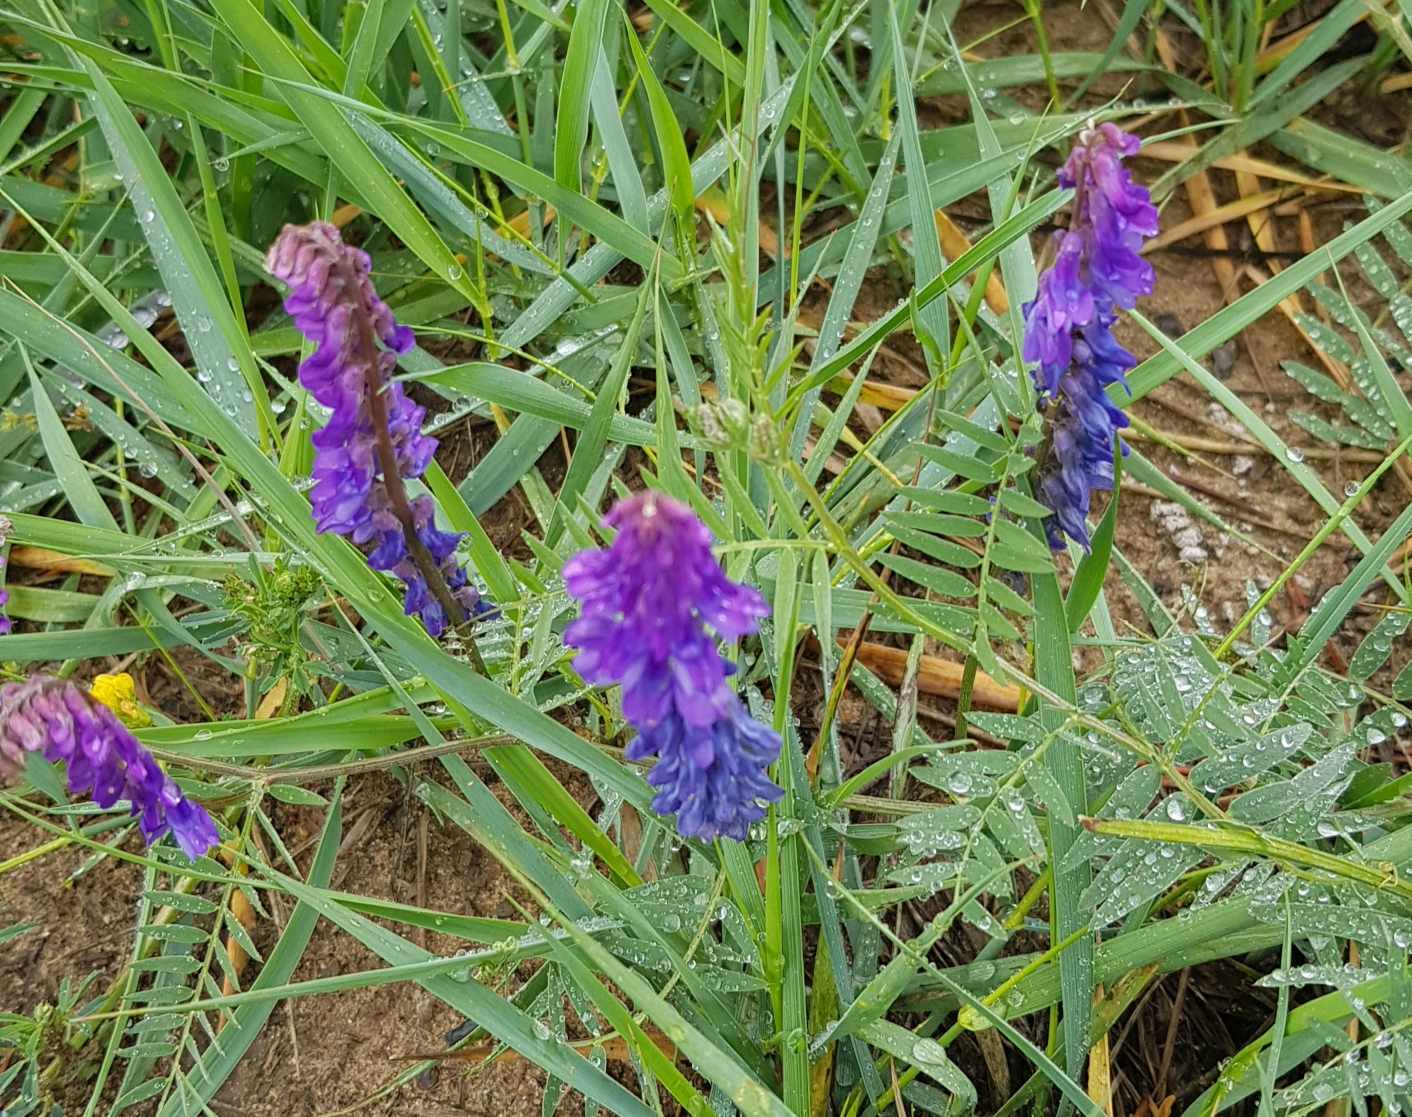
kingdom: Plantae
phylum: Tracheophyta
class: Magnoliopsida
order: Fabales
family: Fabaceae
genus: Vicia
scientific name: Vicia cracca
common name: Bird vetch
